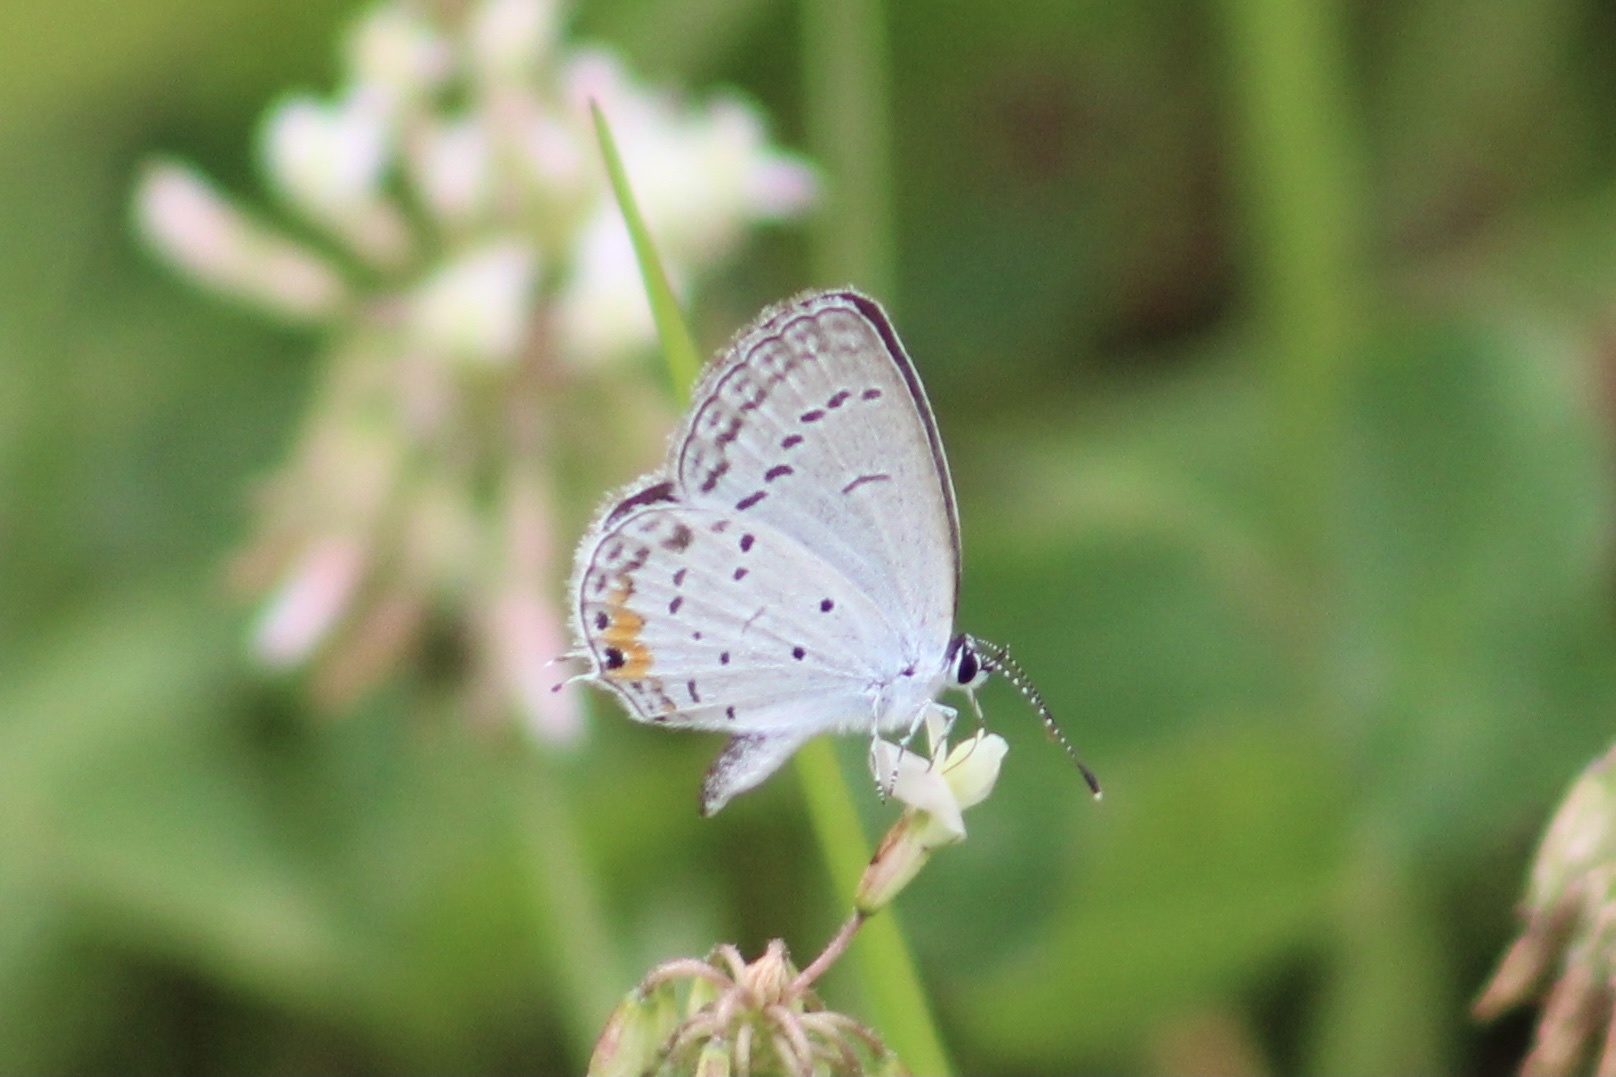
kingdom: Animalia
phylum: Arthropoda
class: Insecta
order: Lepidoptera
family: Lycaenidae
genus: Elkalyce
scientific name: Elkalyce comyntas
